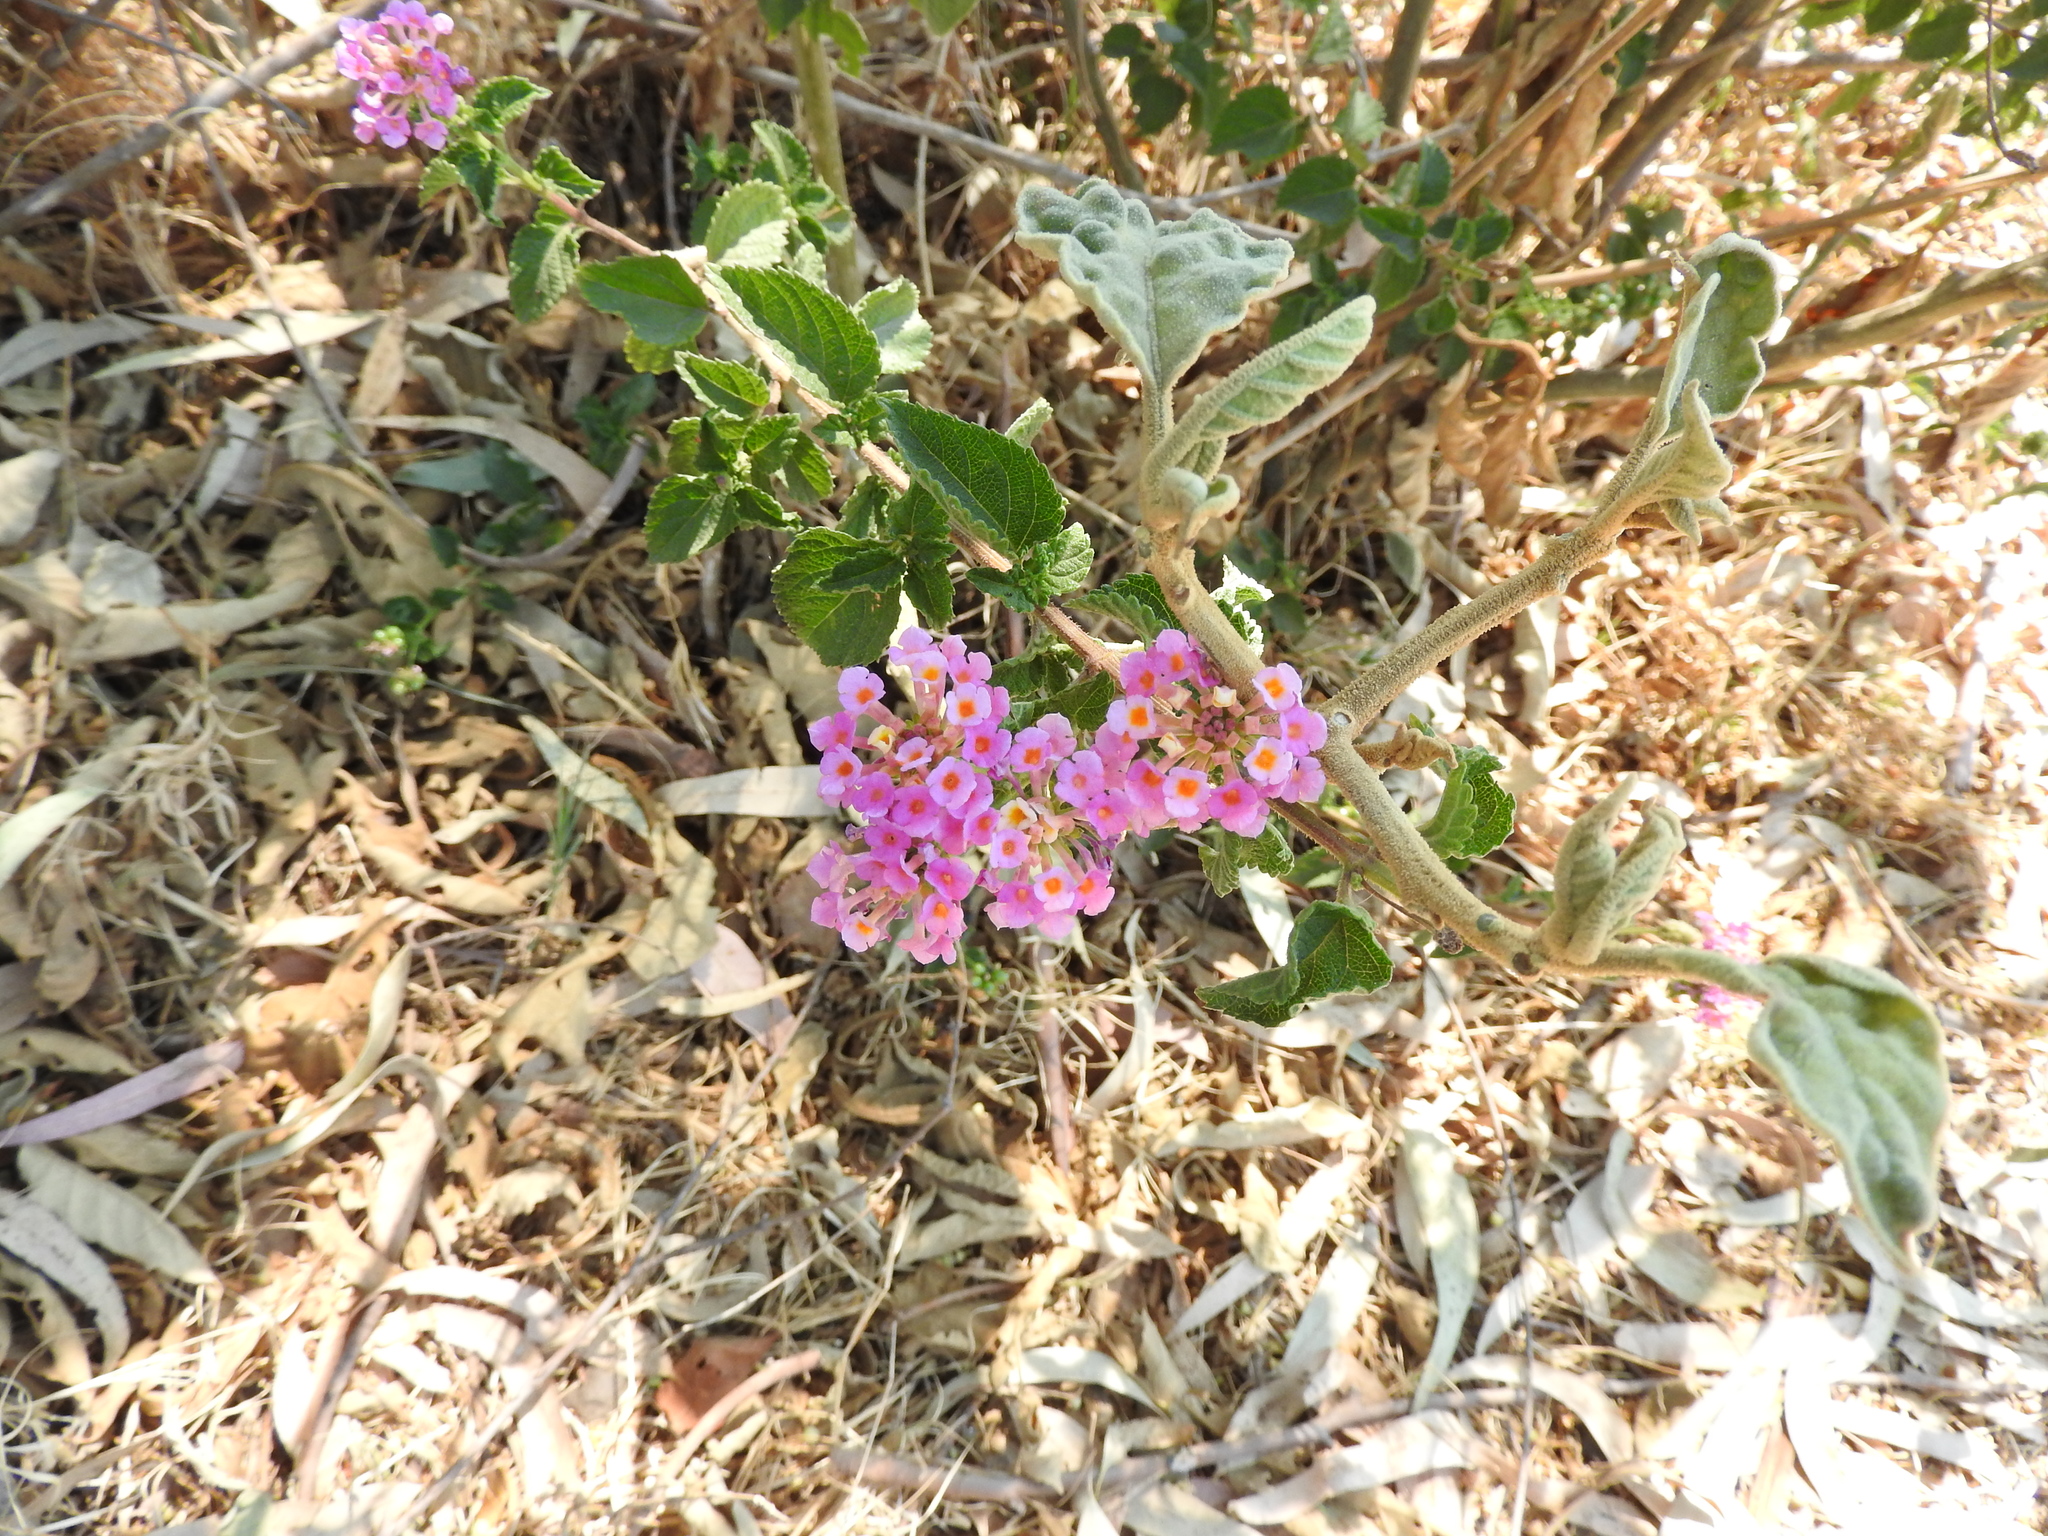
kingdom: Plantae
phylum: Tracheophyta
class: Magnoliopsida
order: Lamiales
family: Verbenaceae
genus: Lantana
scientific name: Lantana camara
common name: Lantana
